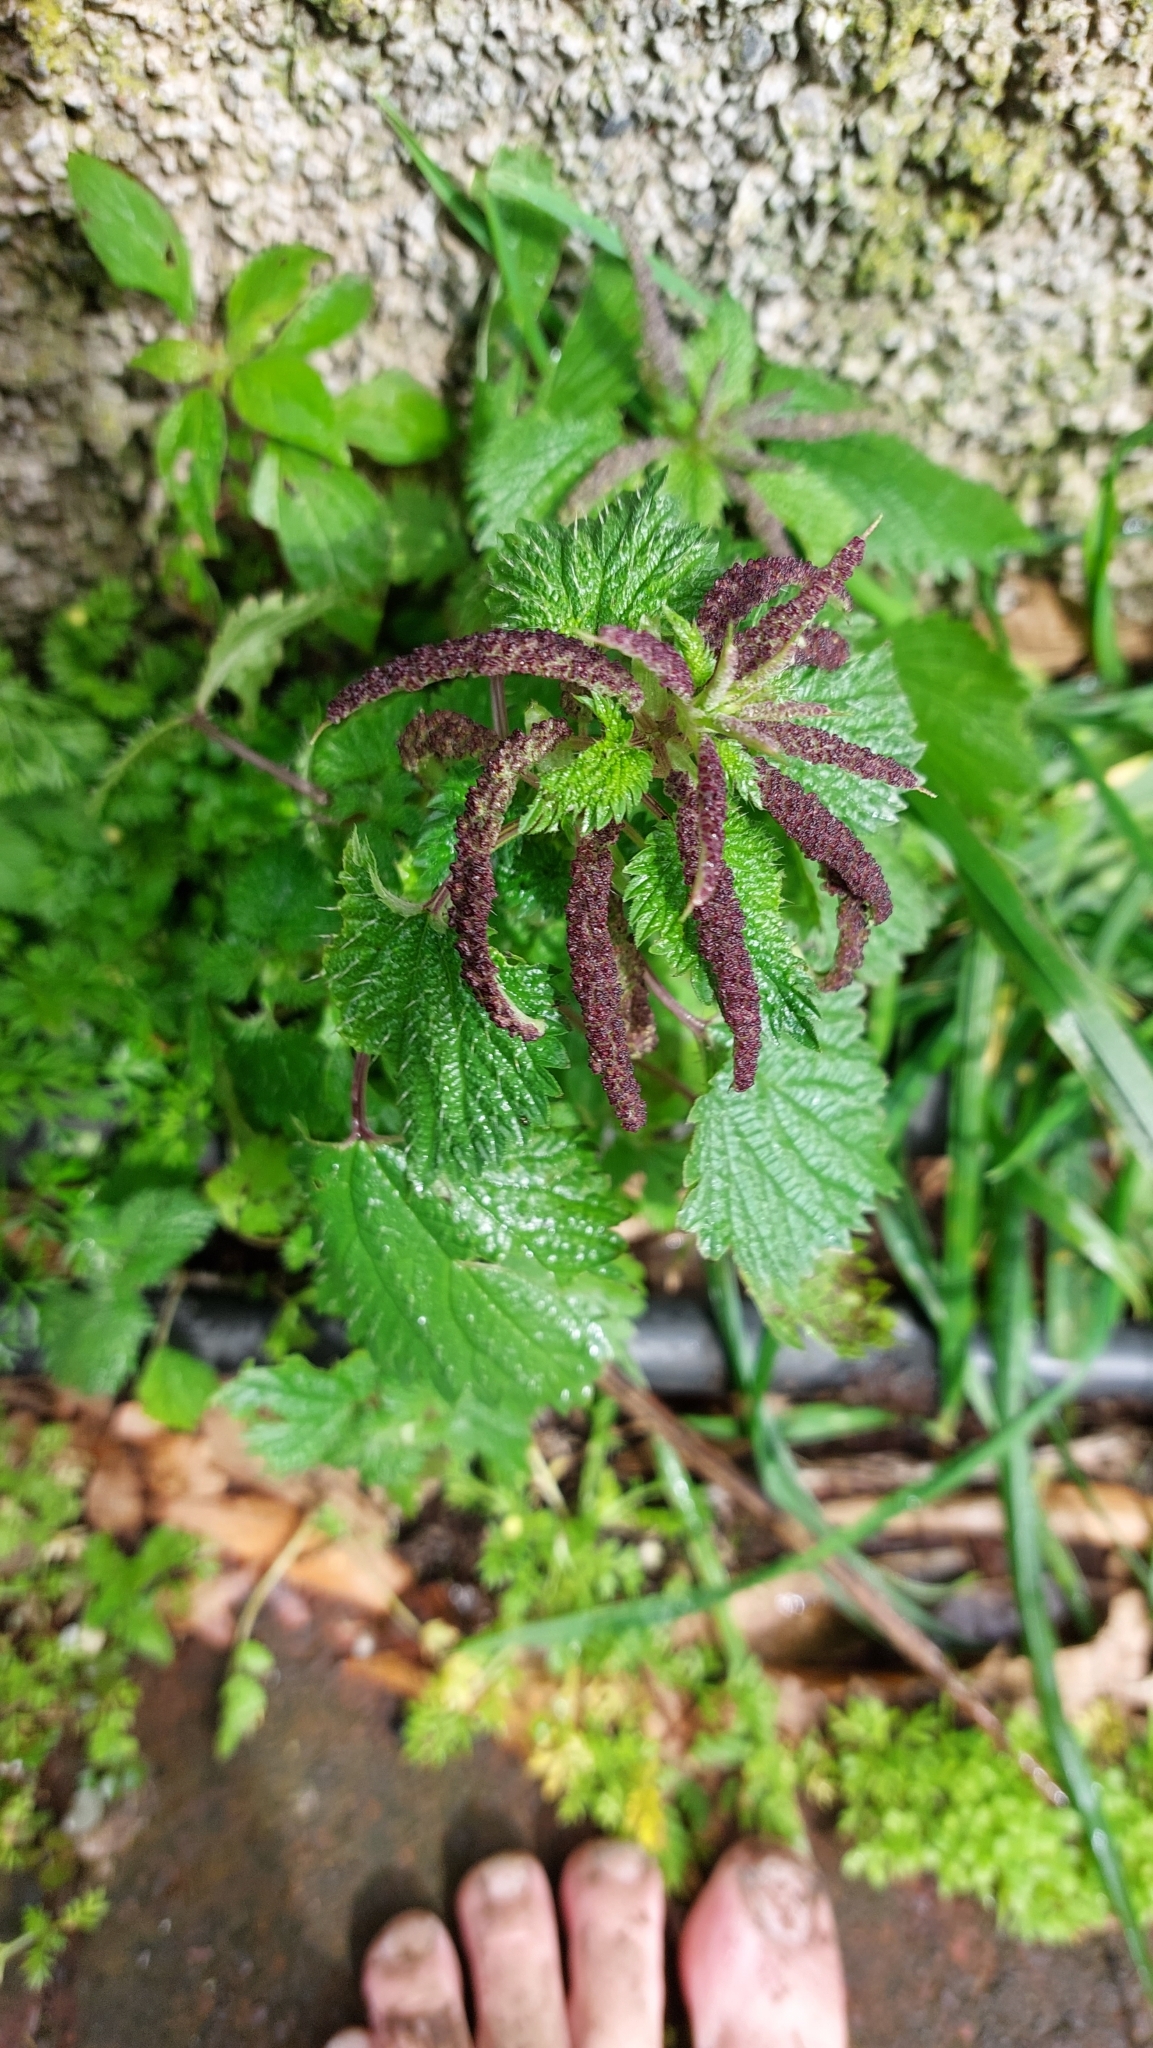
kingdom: Plantae
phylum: Tracheophyta
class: Magnoliopsida
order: Rosales
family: Urticaceae
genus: Urtica
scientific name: Urtica membranacea
